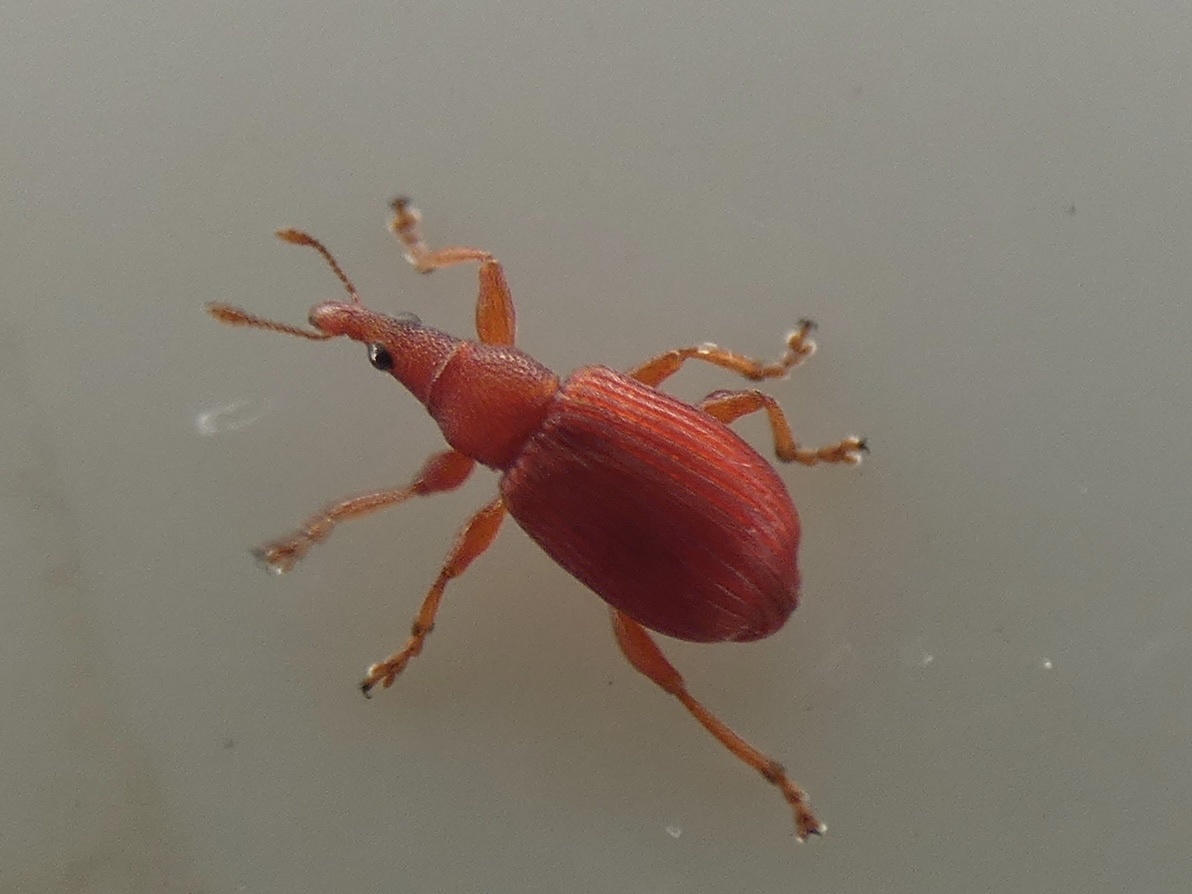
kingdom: Animalia
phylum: Arthropoda
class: Insecta
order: Coleoptera
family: Apionidae
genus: Apion
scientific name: Apion frumentarium
